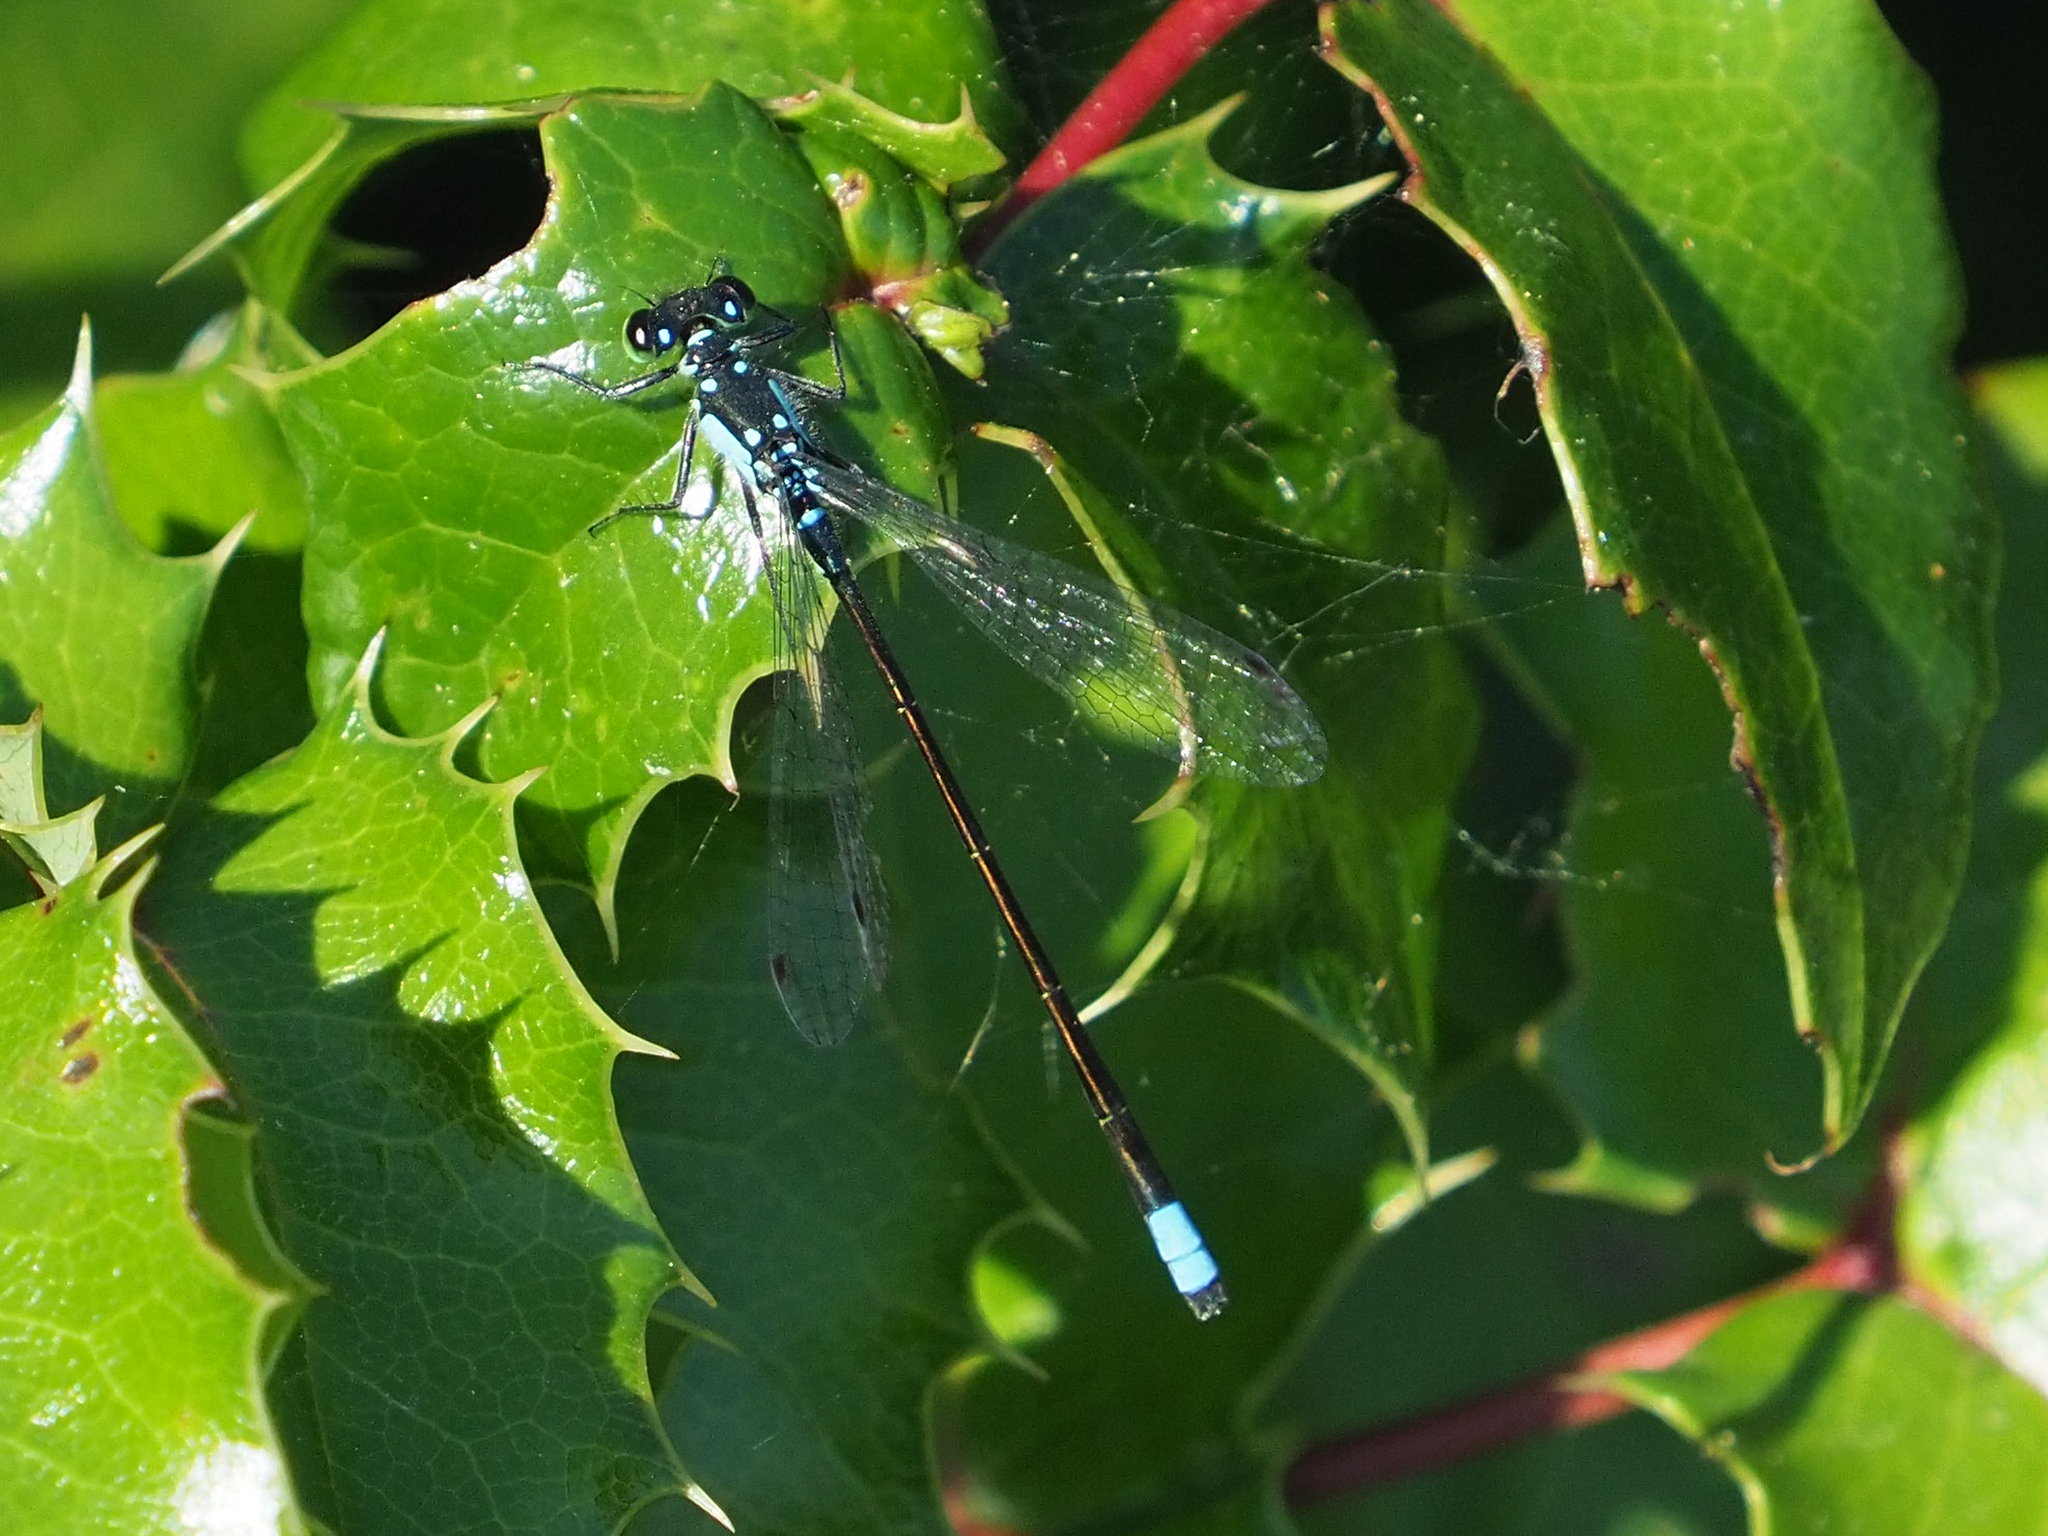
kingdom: Animalia
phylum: Arthropoda
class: Insecta
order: Odonata
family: Coenagrionidae
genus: Ischnura
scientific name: Ischnura cervula
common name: Pacific forktail
